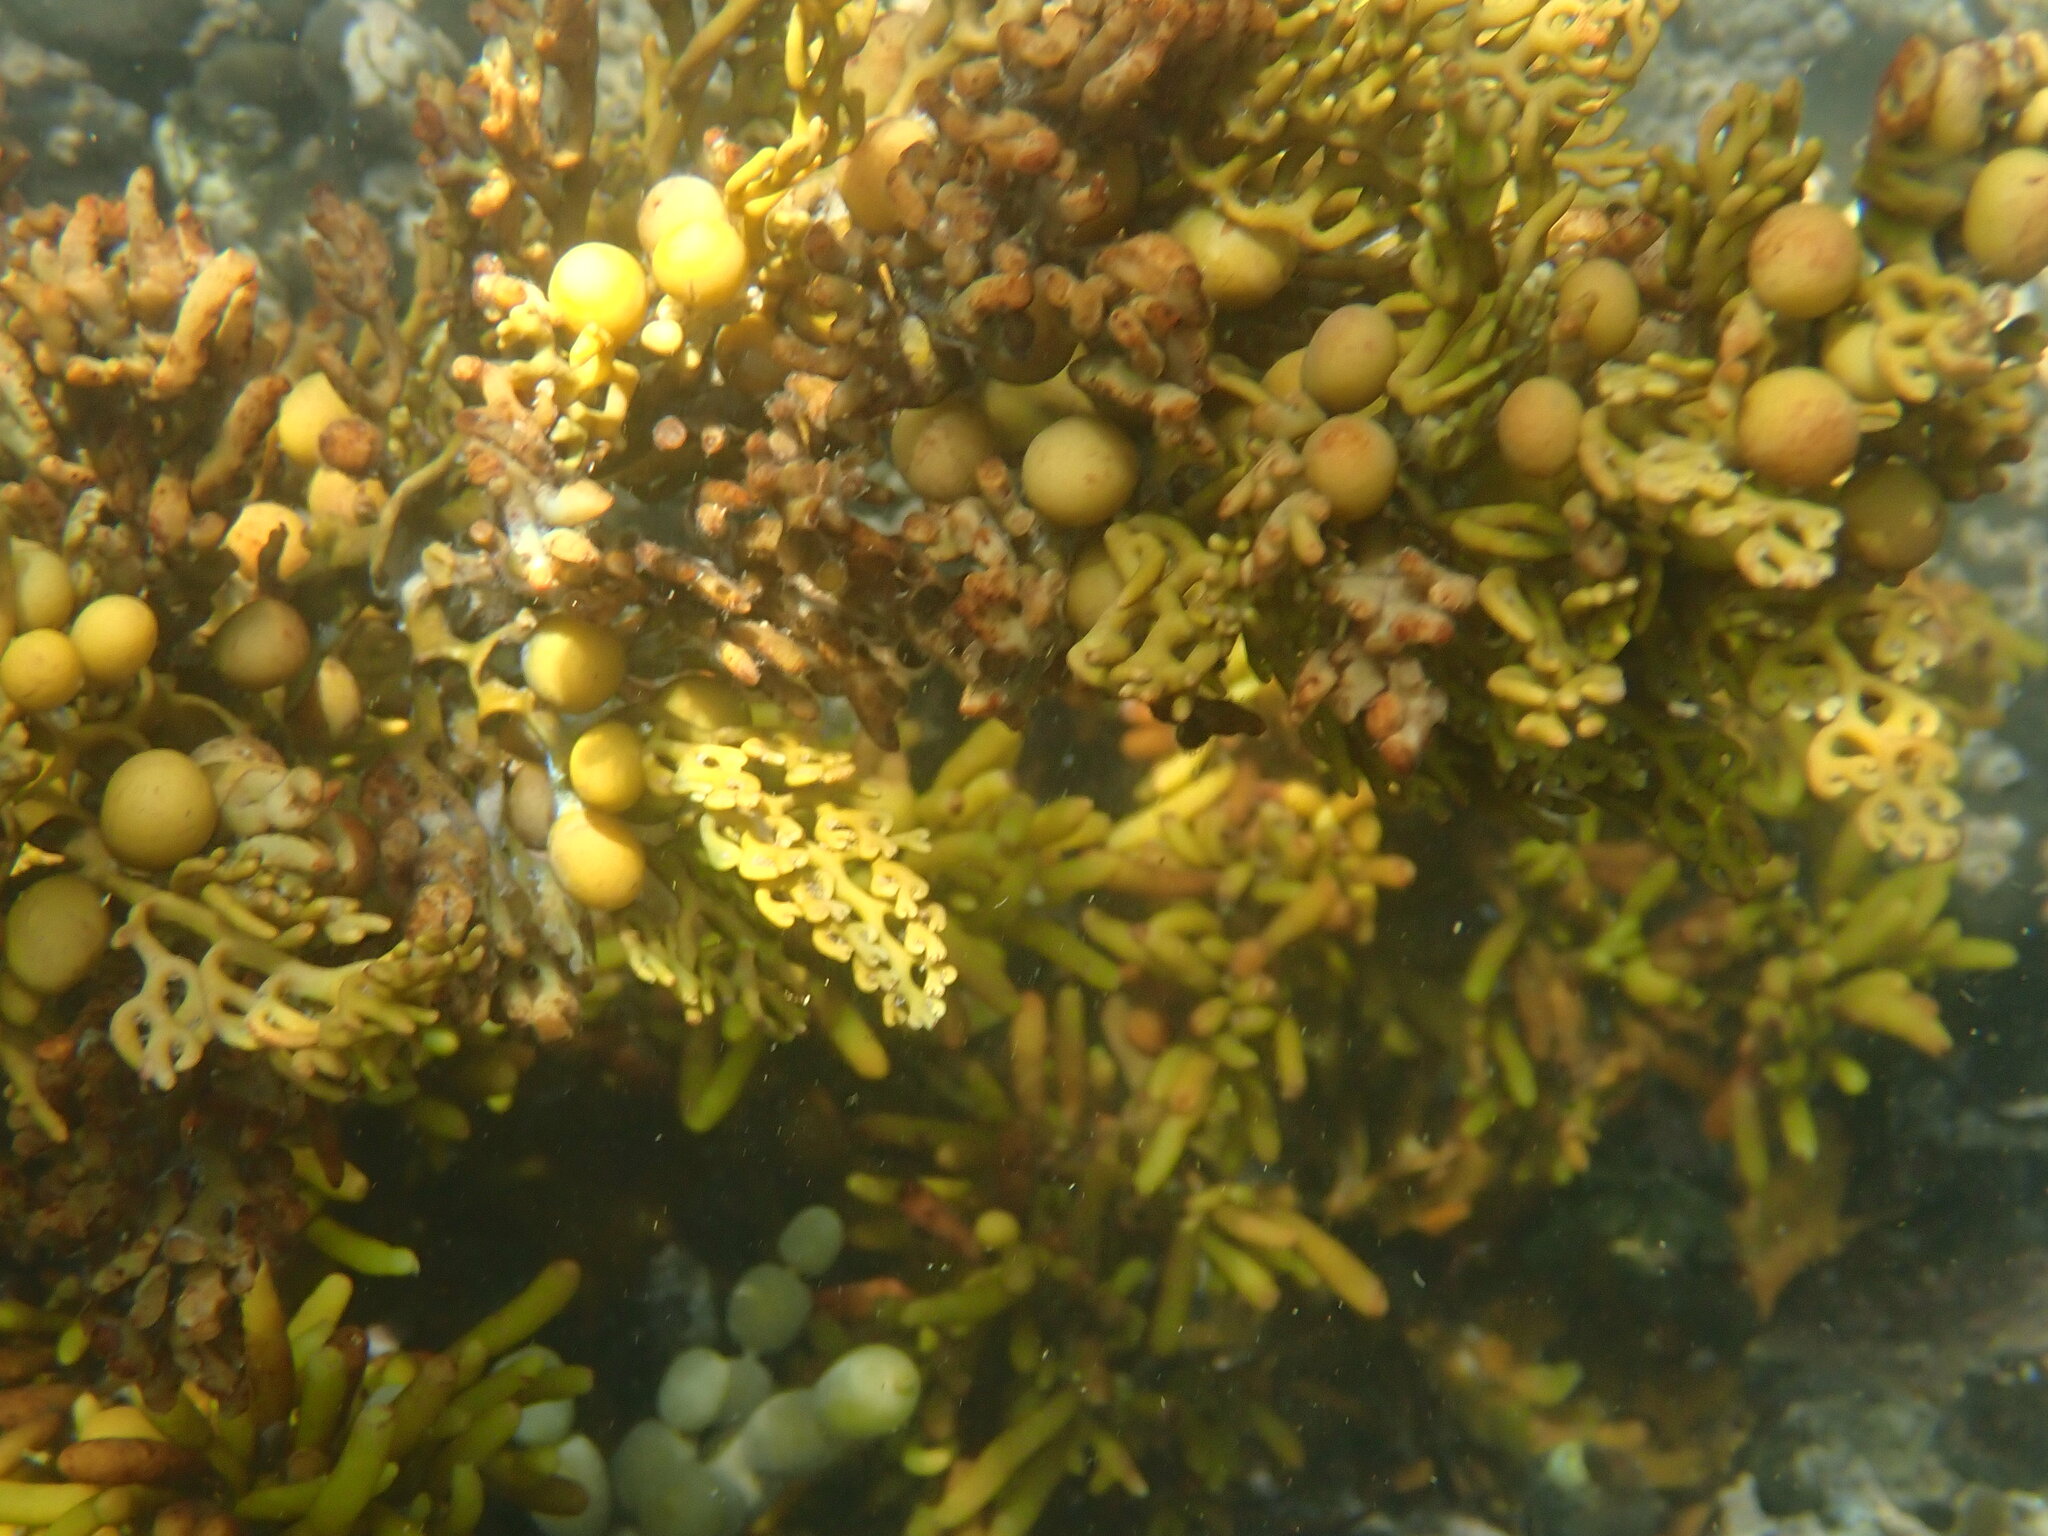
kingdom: Chromista
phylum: Ochrophyta
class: Phaeophyceae
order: Fucales
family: Sargassaceae
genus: Cystophora
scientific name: Cystophora scalaris
